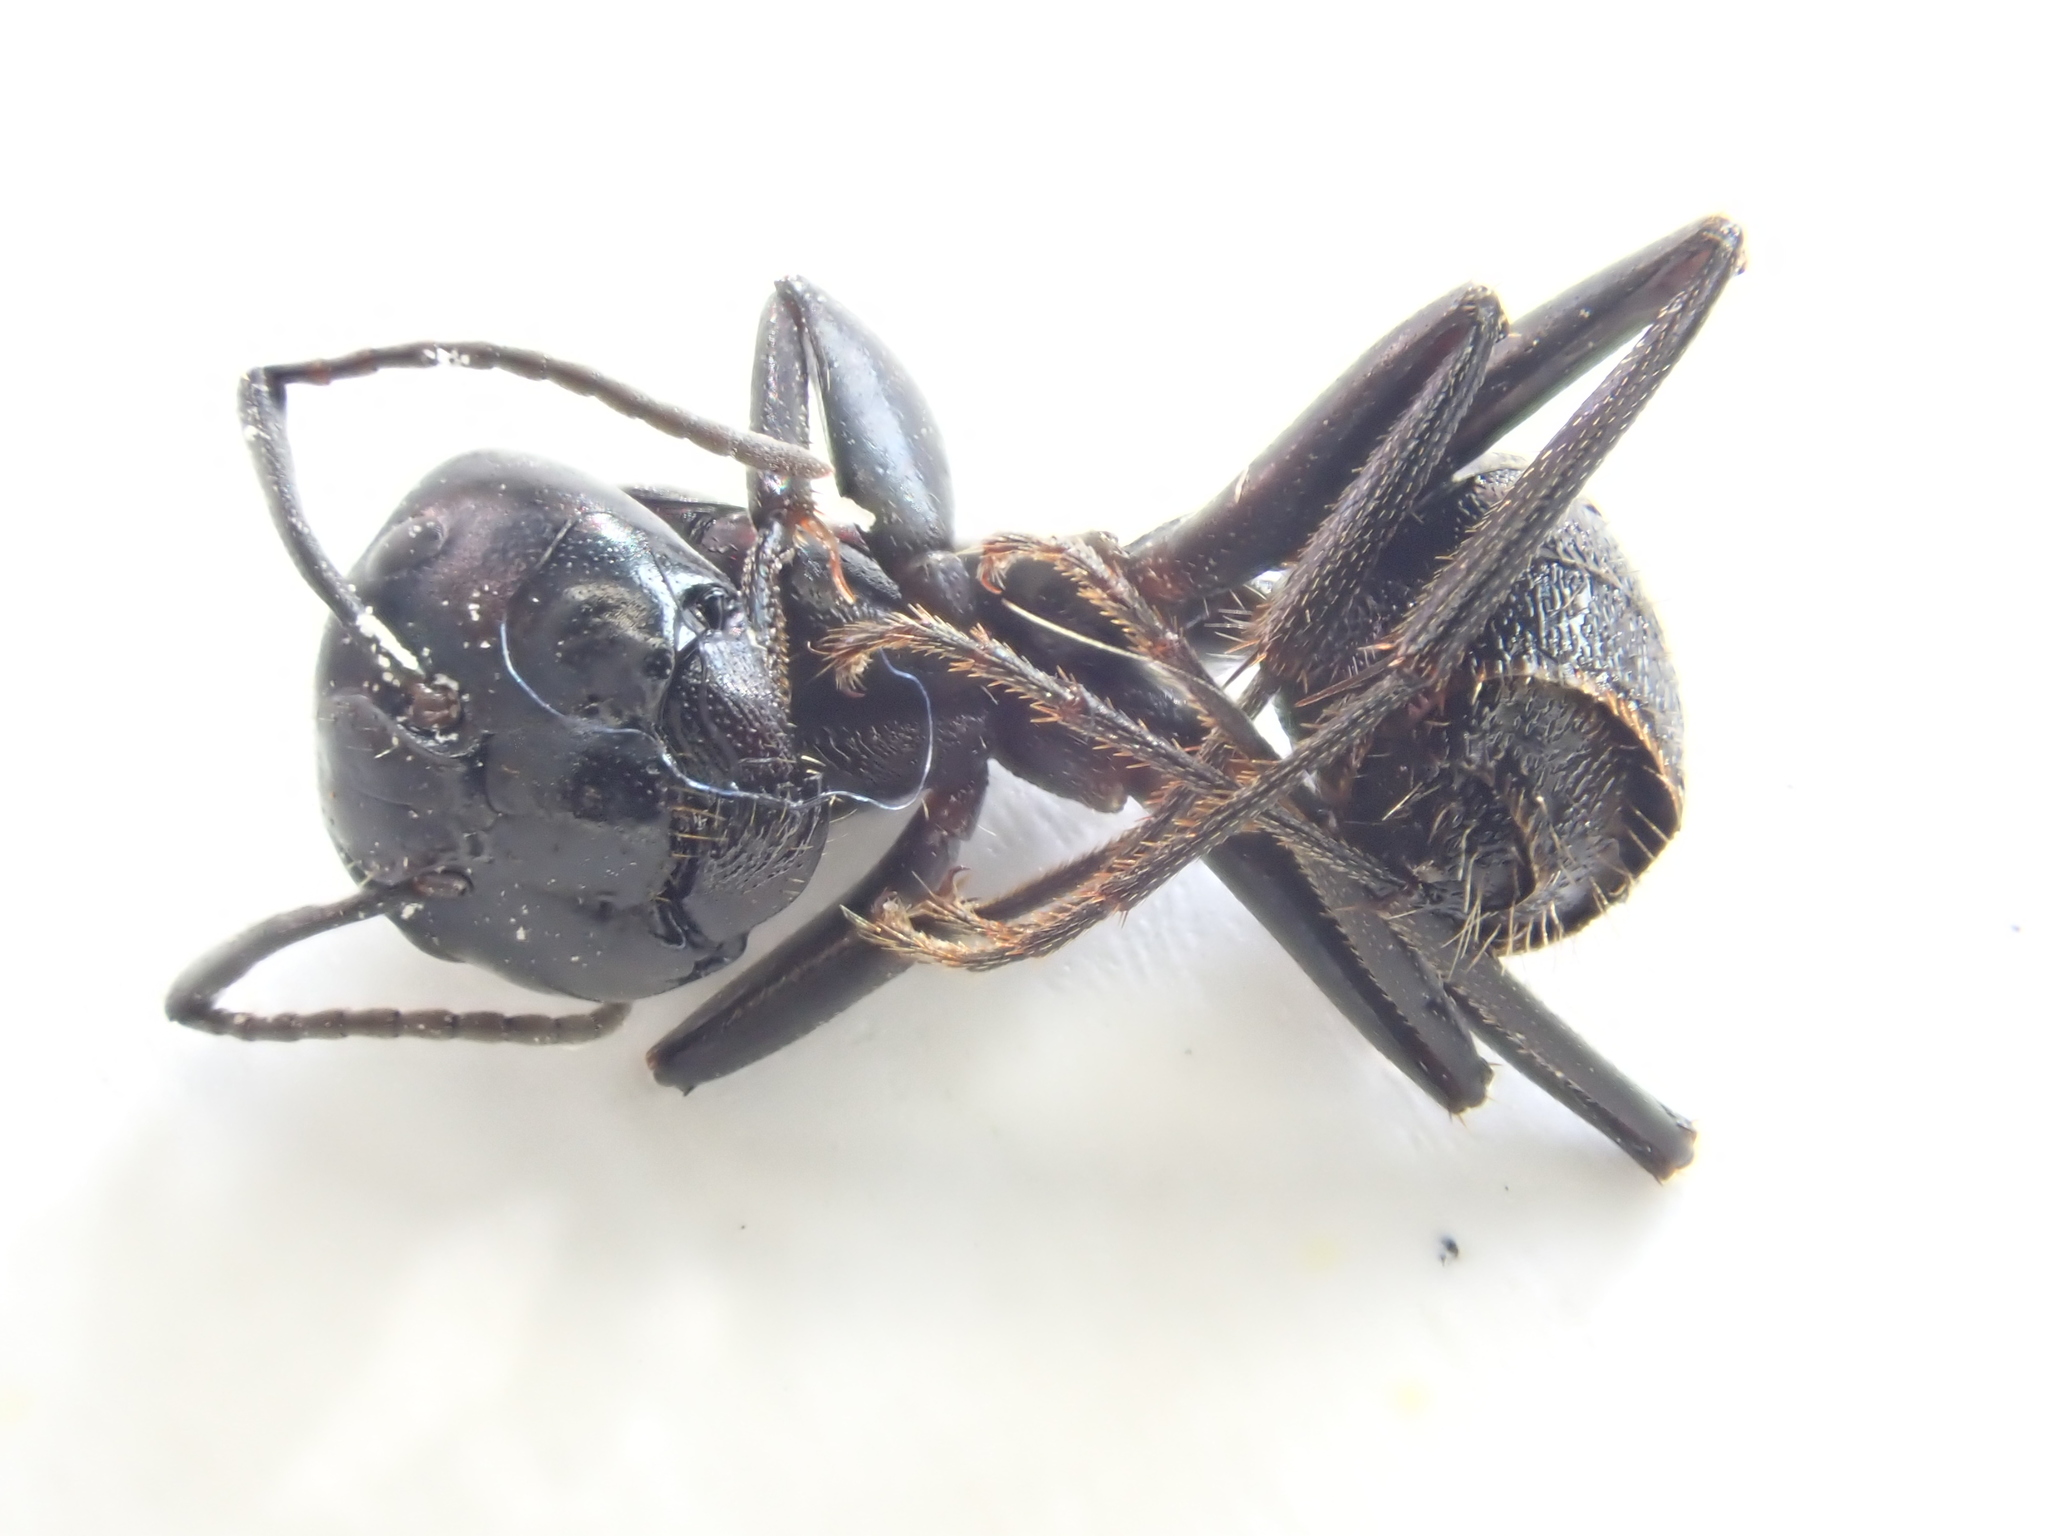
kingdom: Animalia
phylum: Arthropoda
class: Insecta
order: Hymenoptera
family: Formicidae
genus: Camponotus
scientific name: Camponotus vagus
